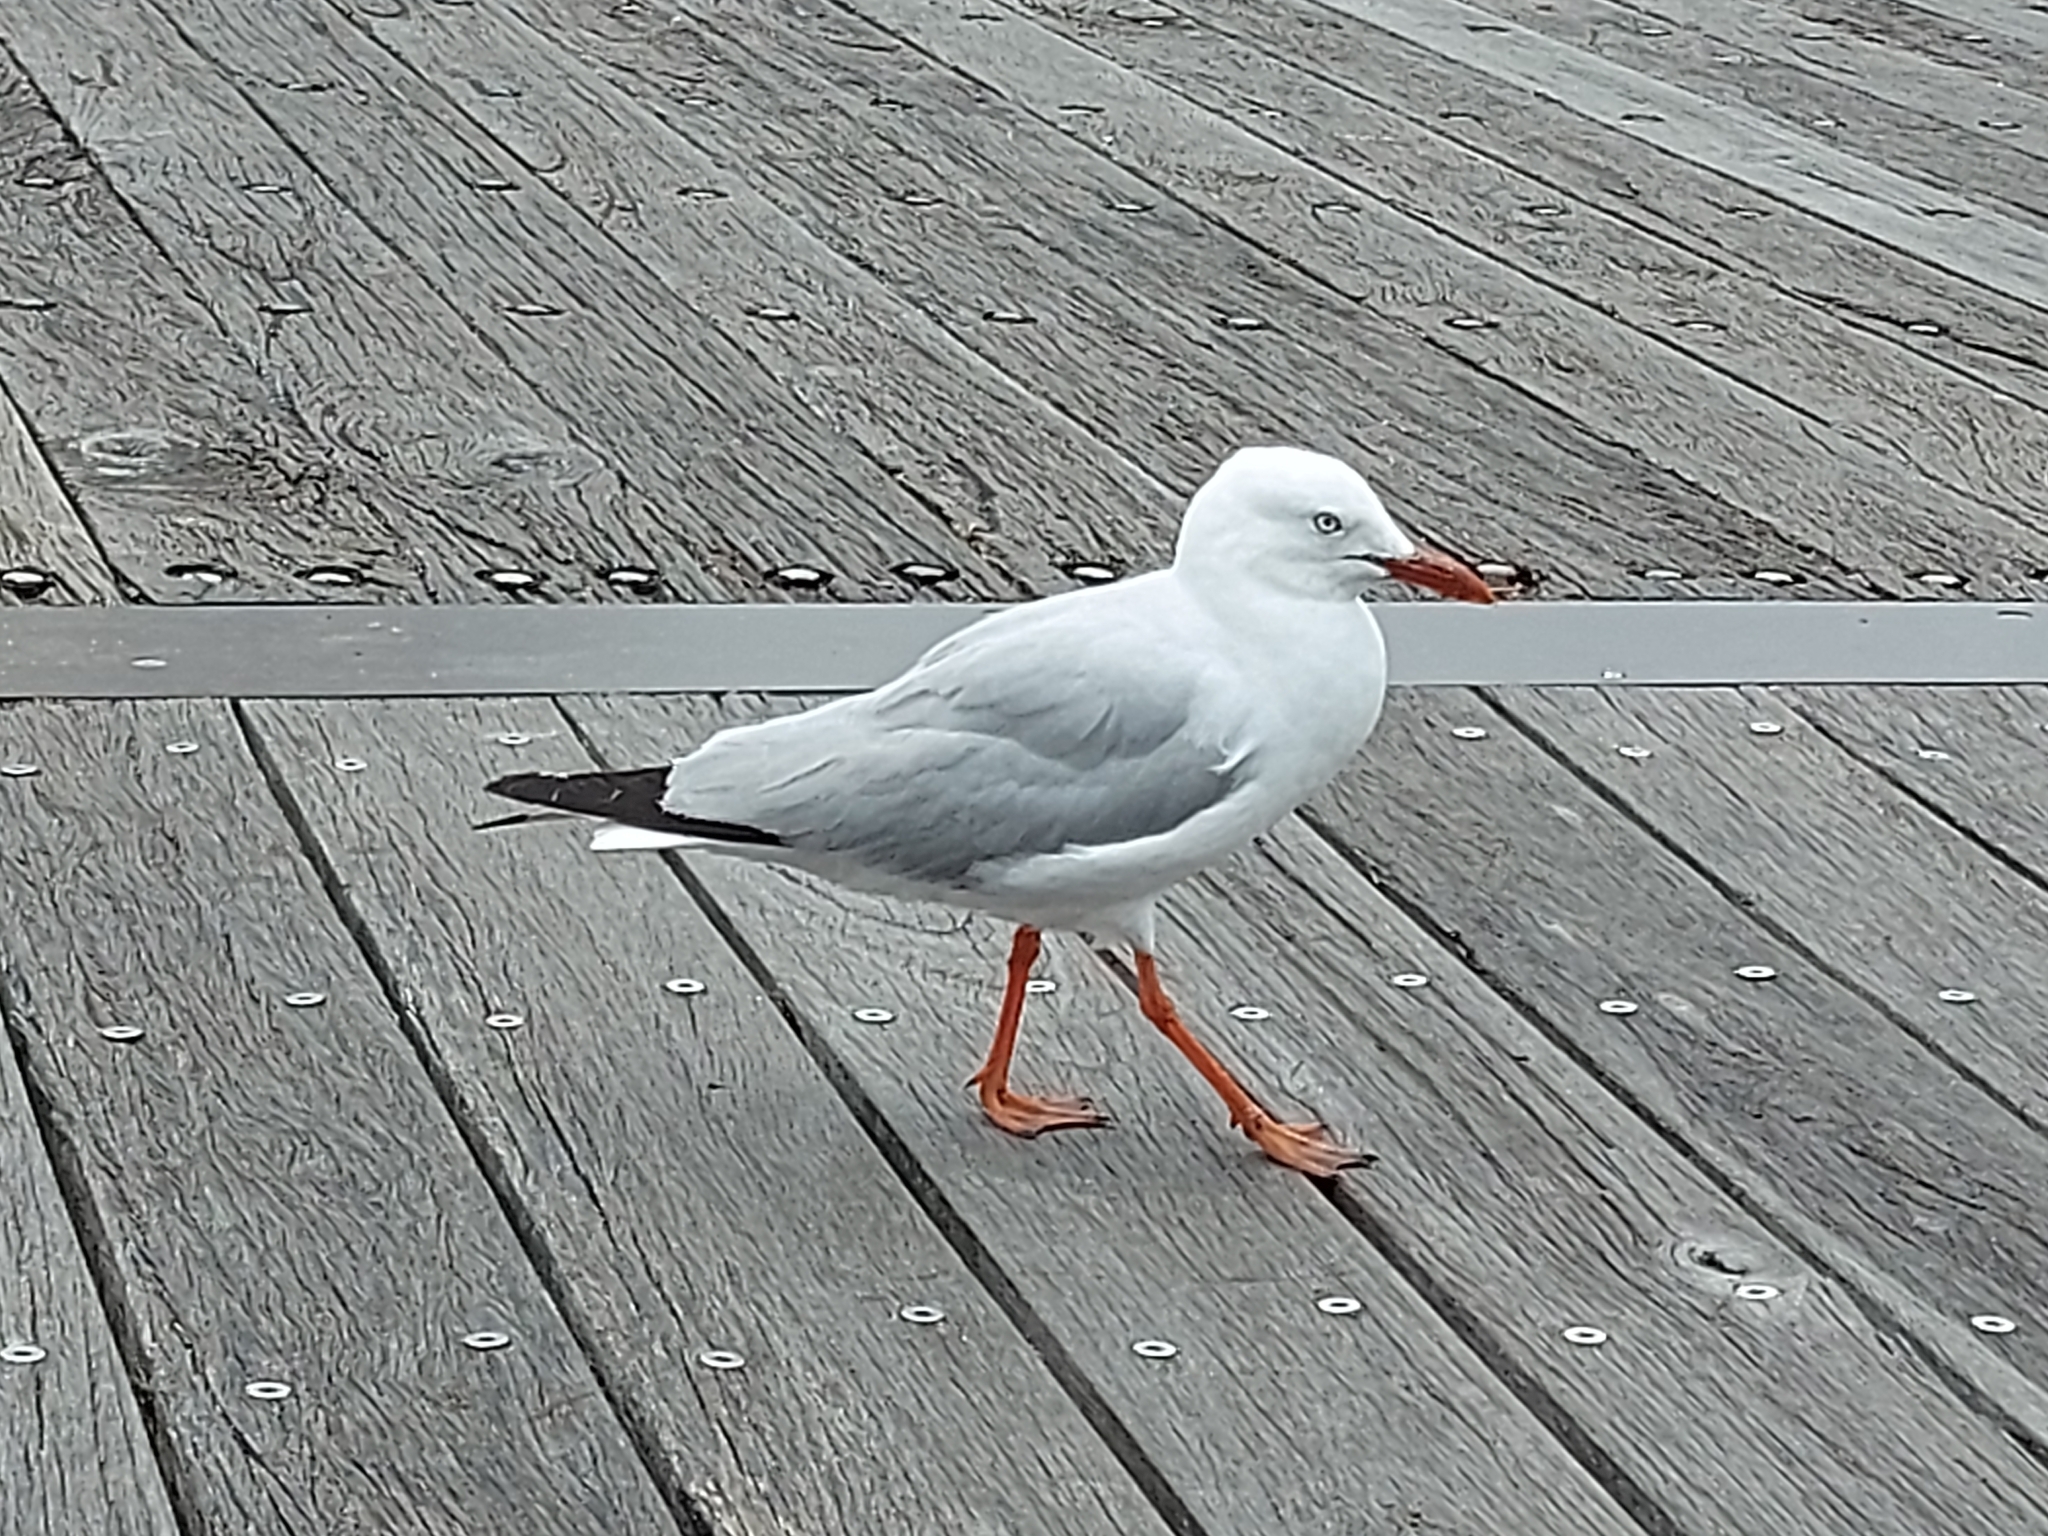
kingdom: Animalia
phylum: Chordata
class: Aves
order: Charadriiformes
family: Laridae
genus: Chroicocephalus
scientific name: Chroicocephalus novaehollandiae
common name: Silver gull
